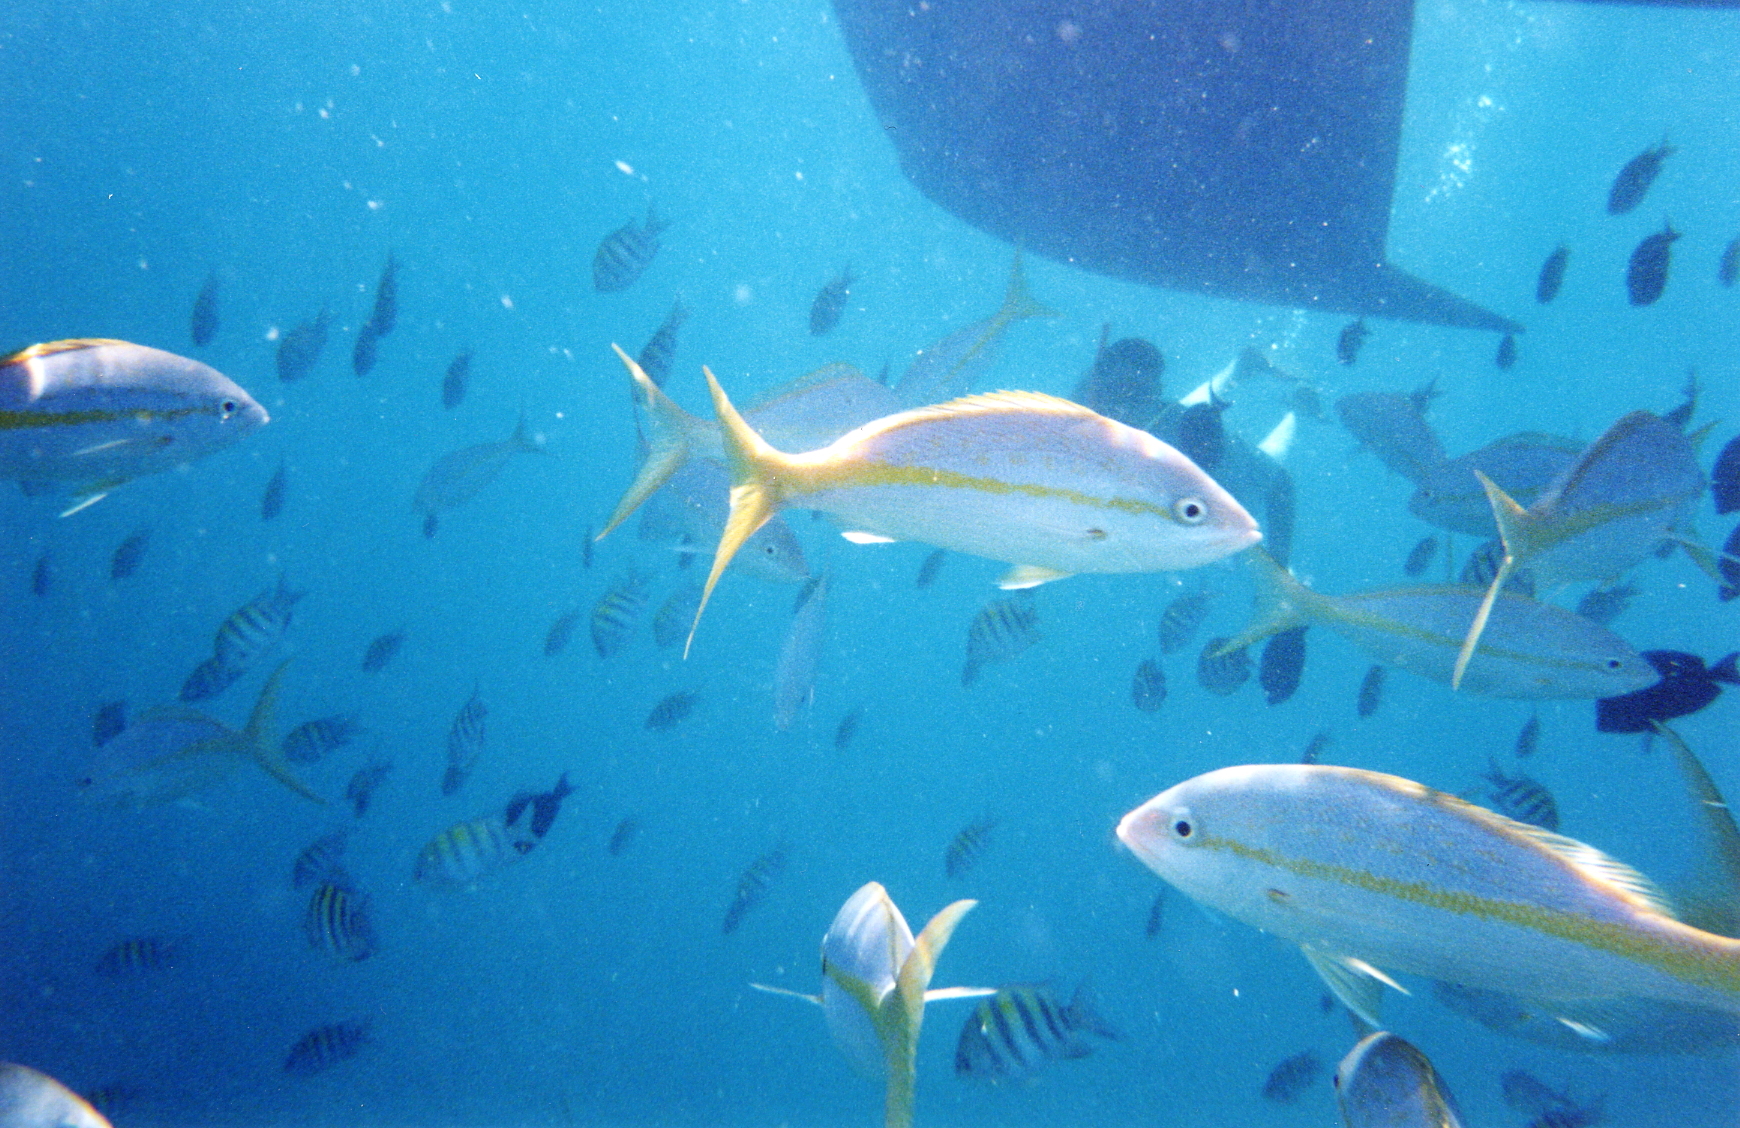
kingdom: Animalia
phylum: Chordata
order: Perciformes
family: Lutjanidae
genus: Ocyurus
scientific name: Ocyurus chrysurus
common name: Yellowtail snapper
